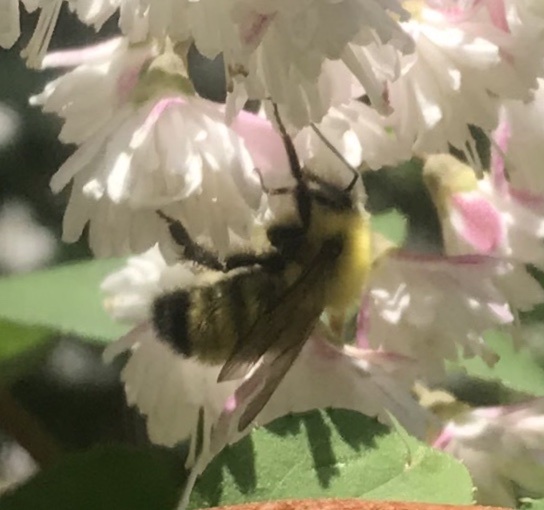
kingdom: Animalia
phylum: Arthropoda
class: Insecta
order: Hymenoptera
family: Apidae
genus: Bombus
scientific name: Bombus perplexus
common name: Confusing bumble bee
